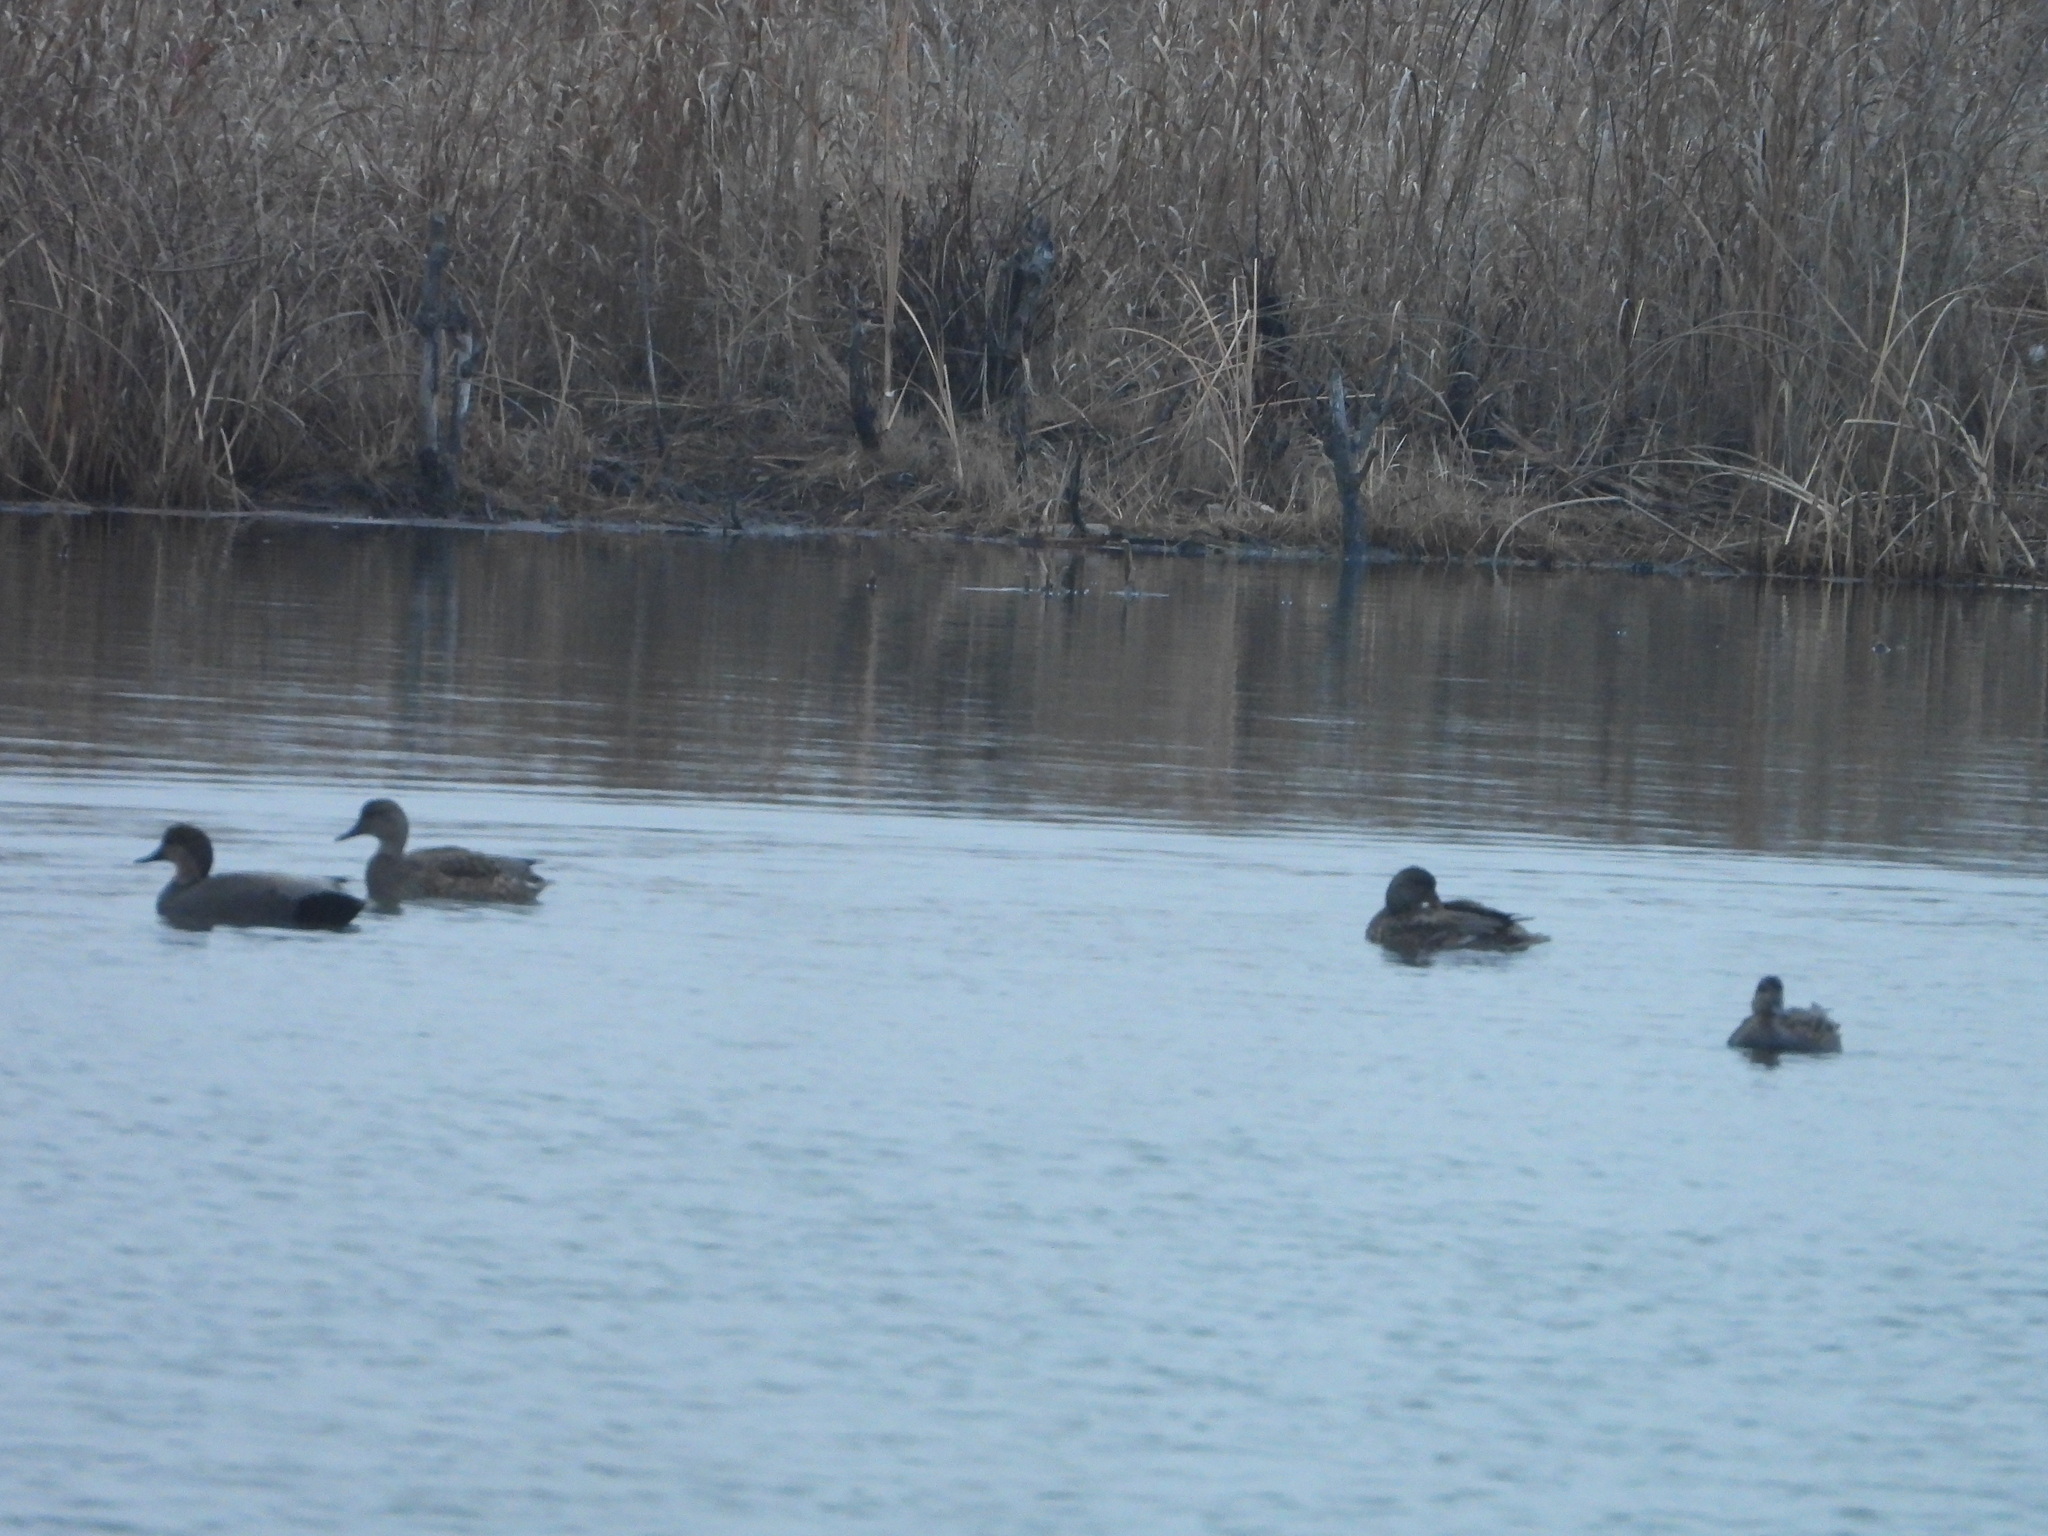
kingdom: Animalia
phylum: Chordata
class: Aves
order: Anseriformes
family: Anatidae
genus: Mareca
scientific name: Mareca strepera
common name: Gadwall
